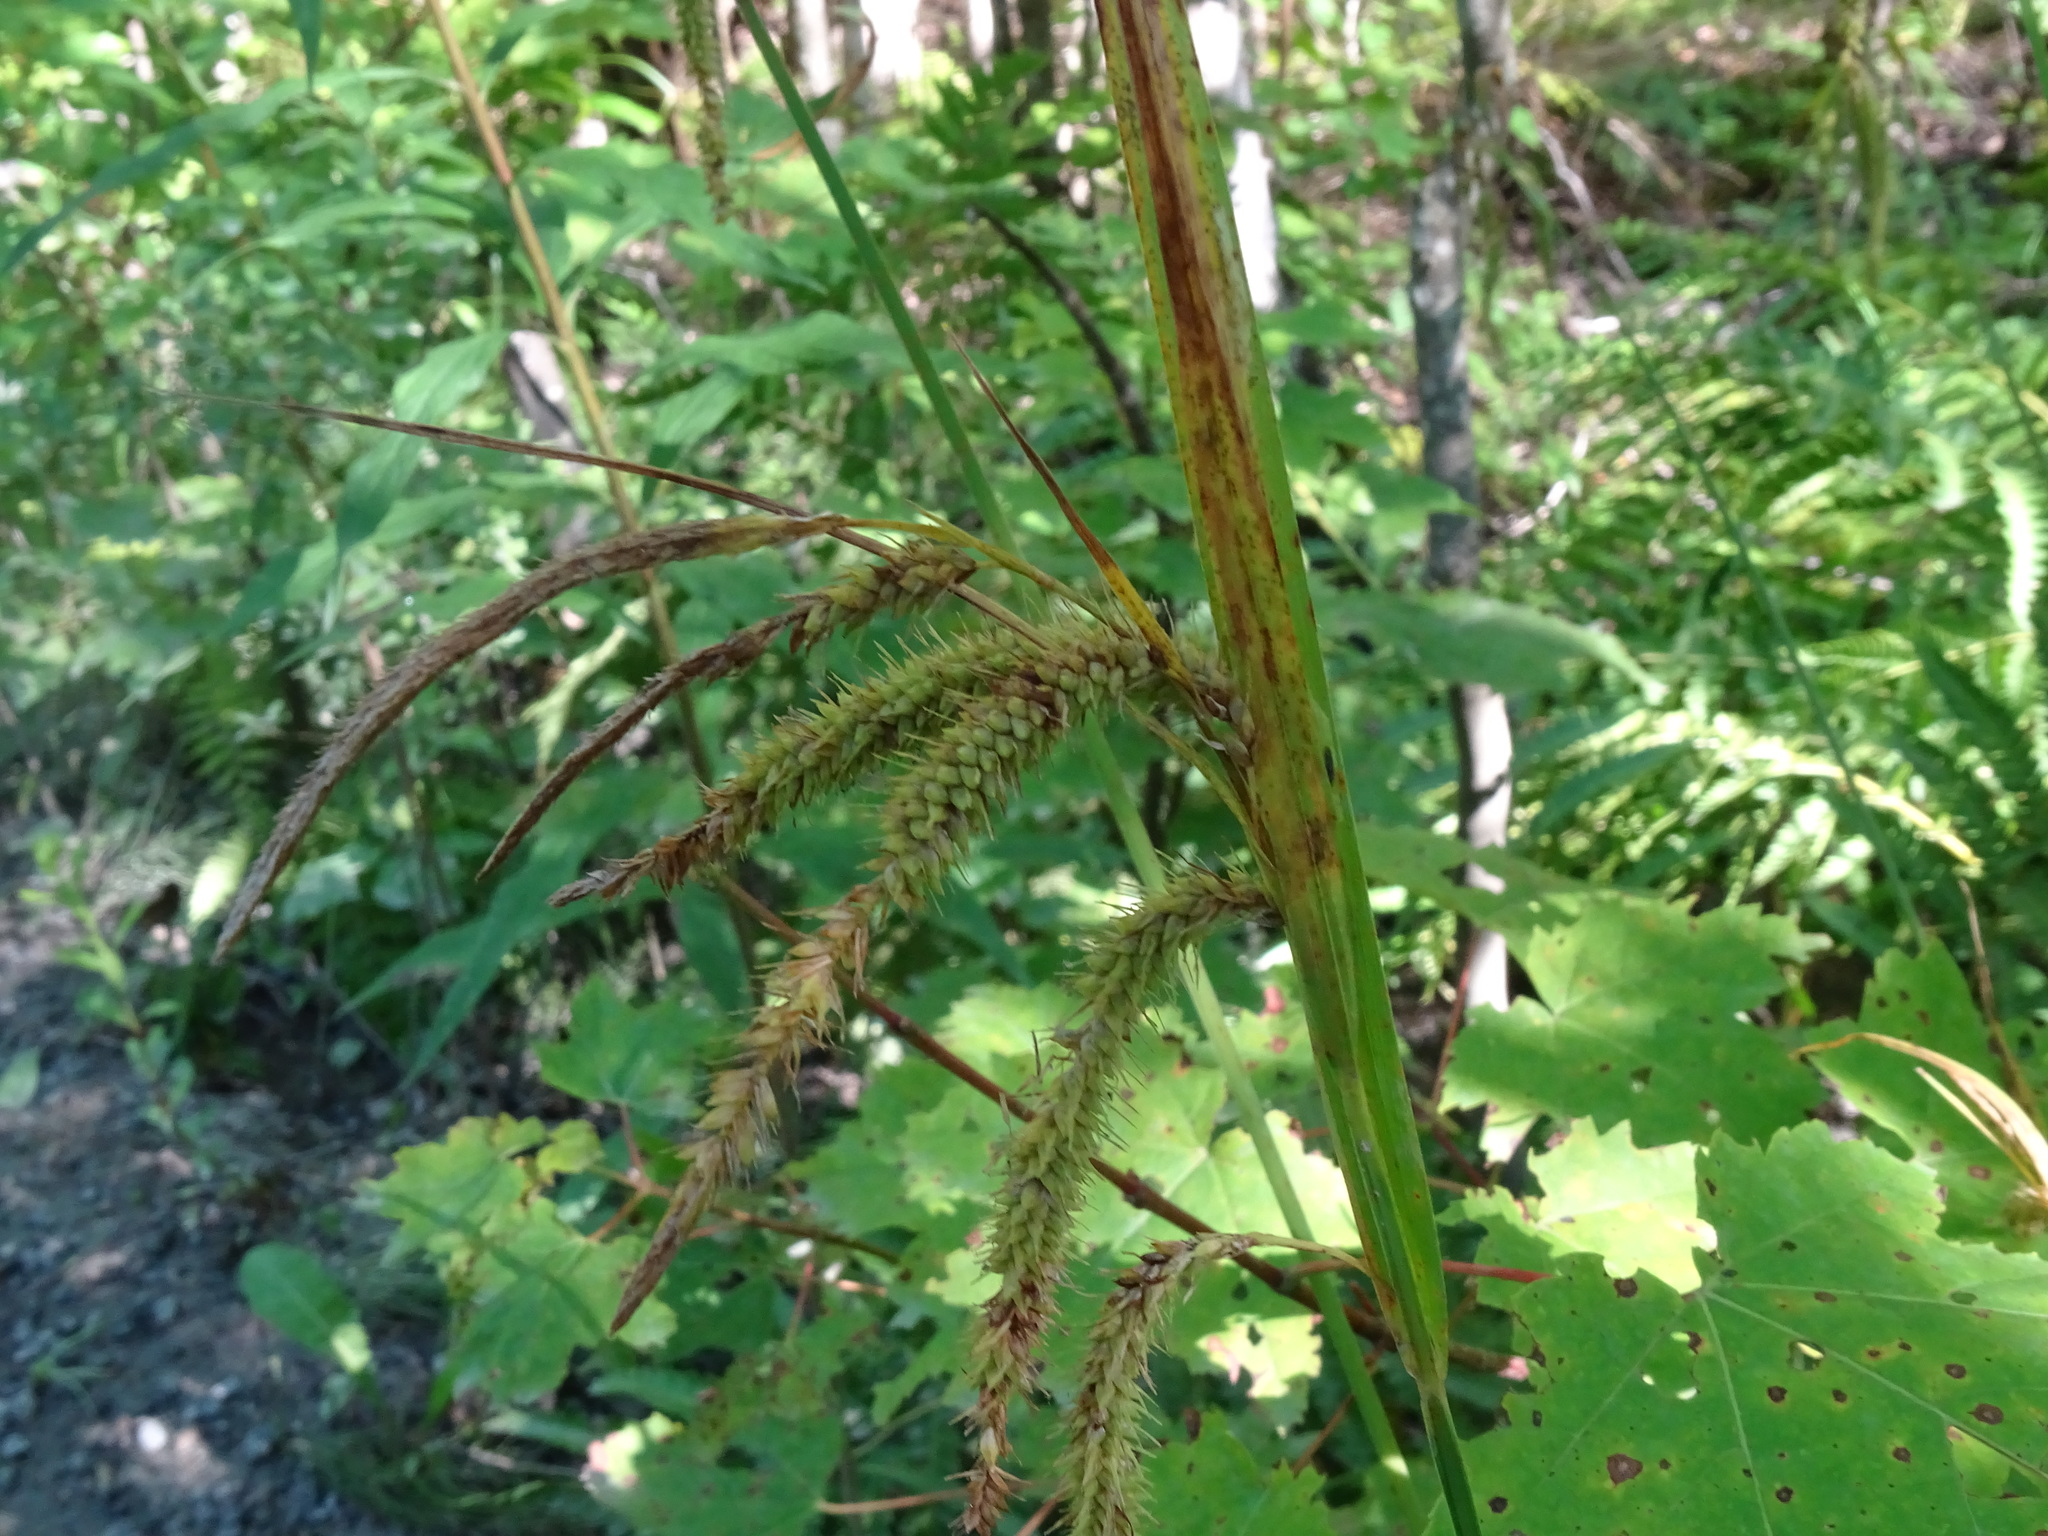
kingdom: Plantae
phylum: Tracheophyta
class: Liliopsida
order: Poales
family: Cyperaceae
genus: Carex
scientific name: Carex gynandra
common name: Nodding sedge
